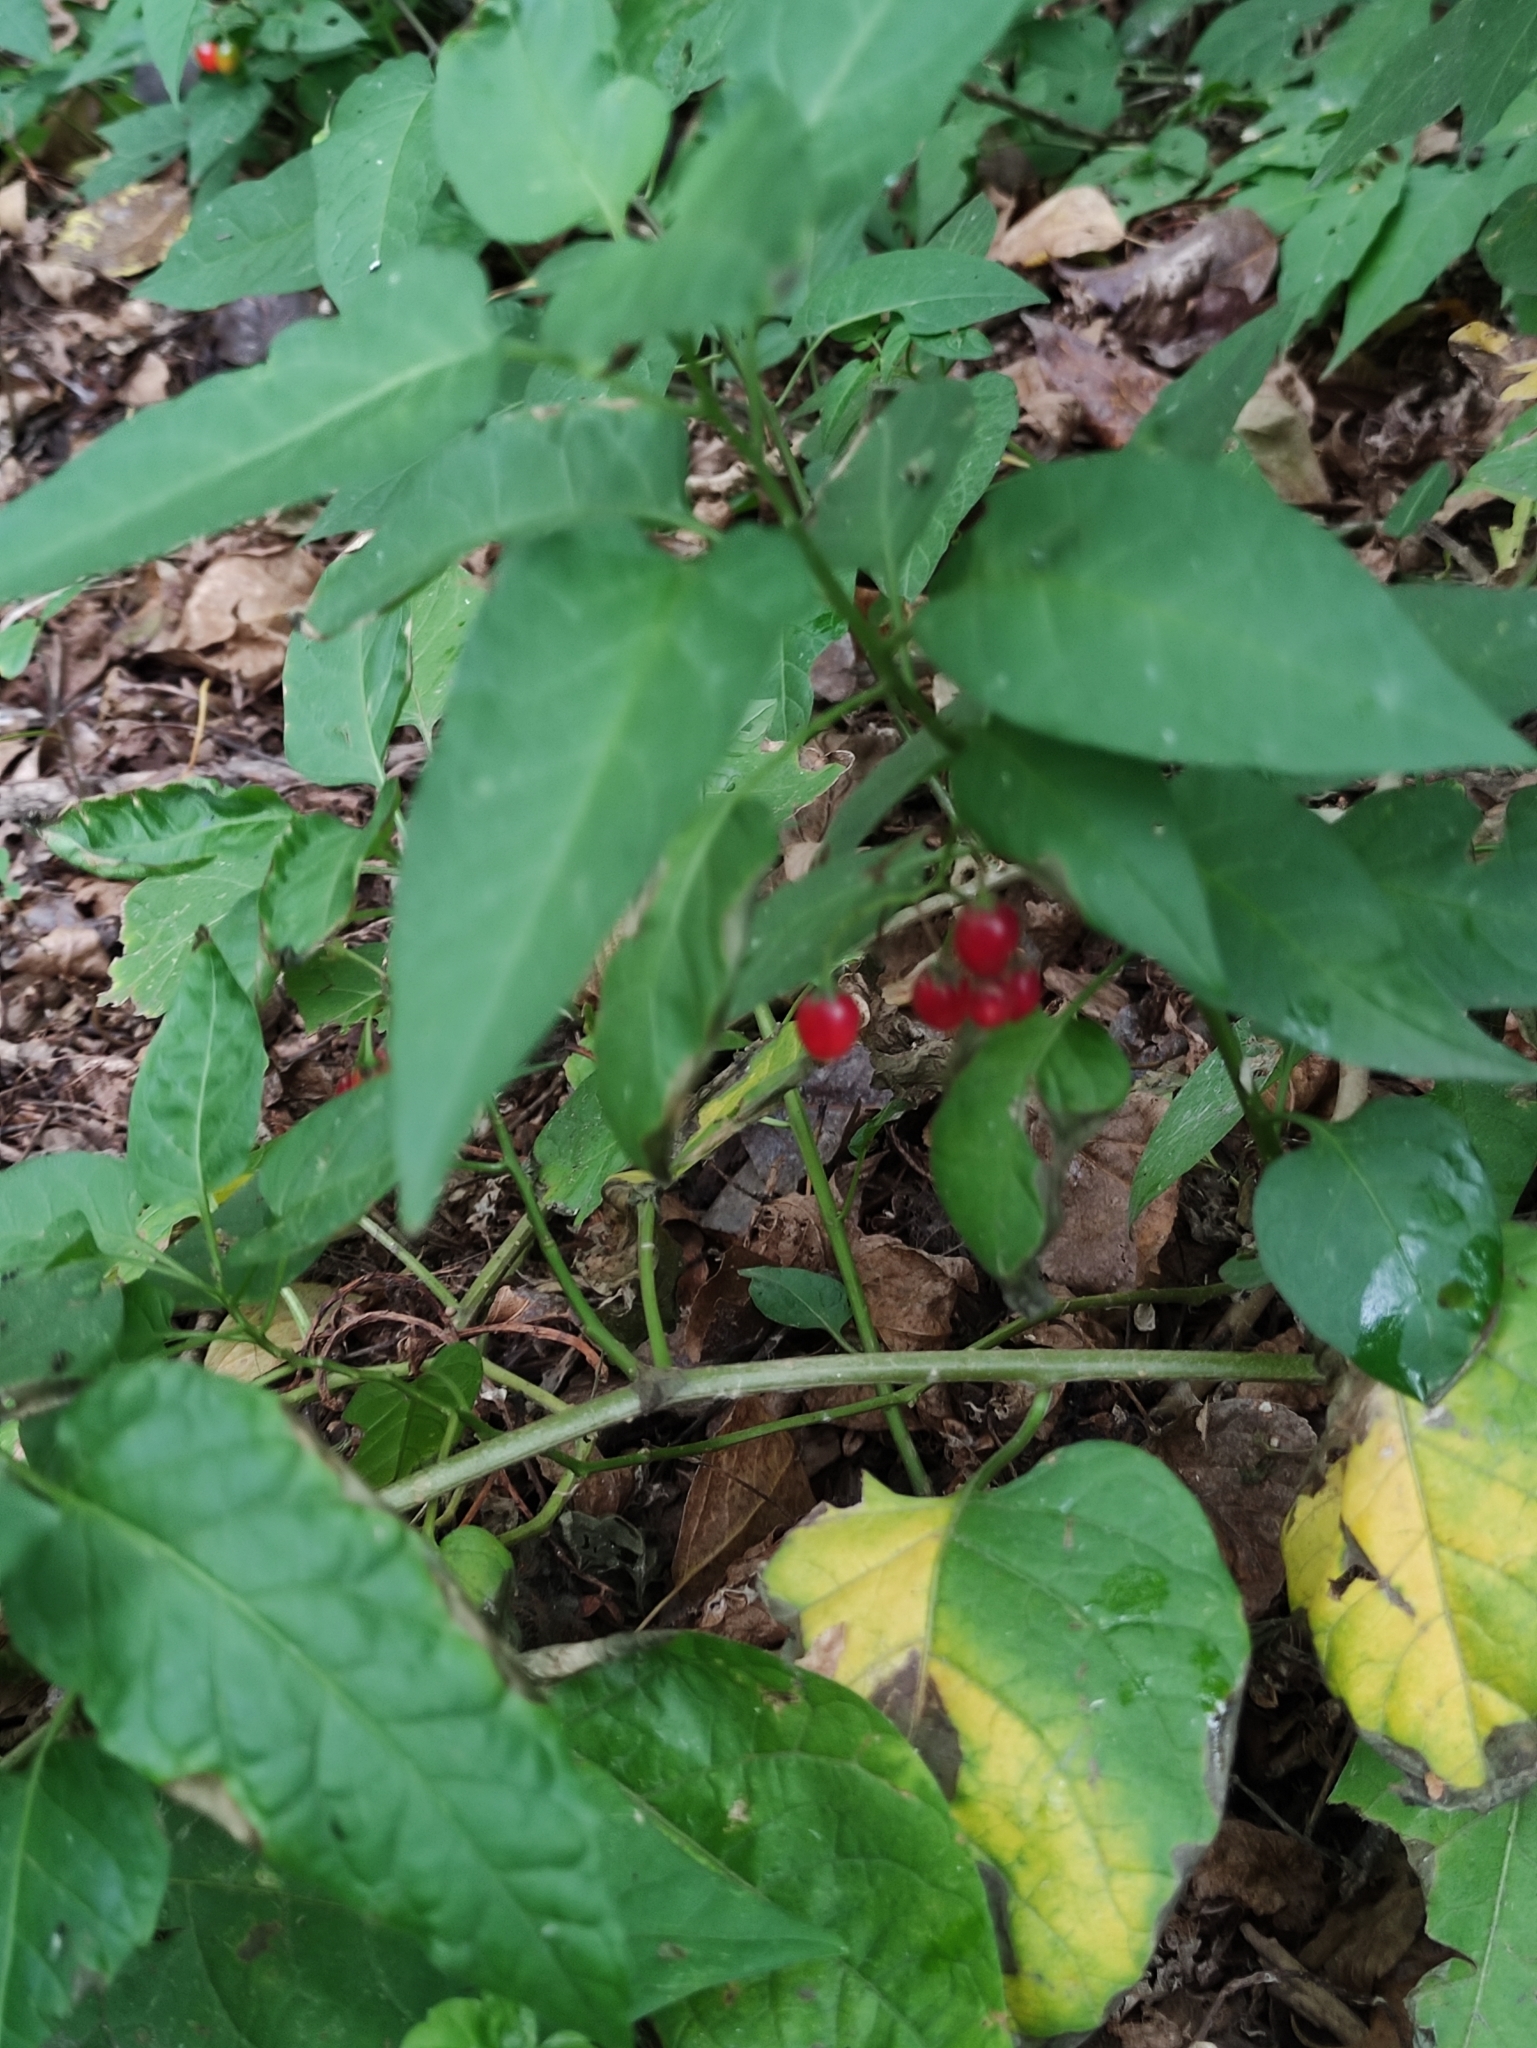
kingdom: Plantae
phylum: Tracheophyta
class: Magnoliopsida
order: Solanales
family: Solanaceae
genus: Solanum
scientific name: Solanum dulcamara
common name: Climbing nightshade
